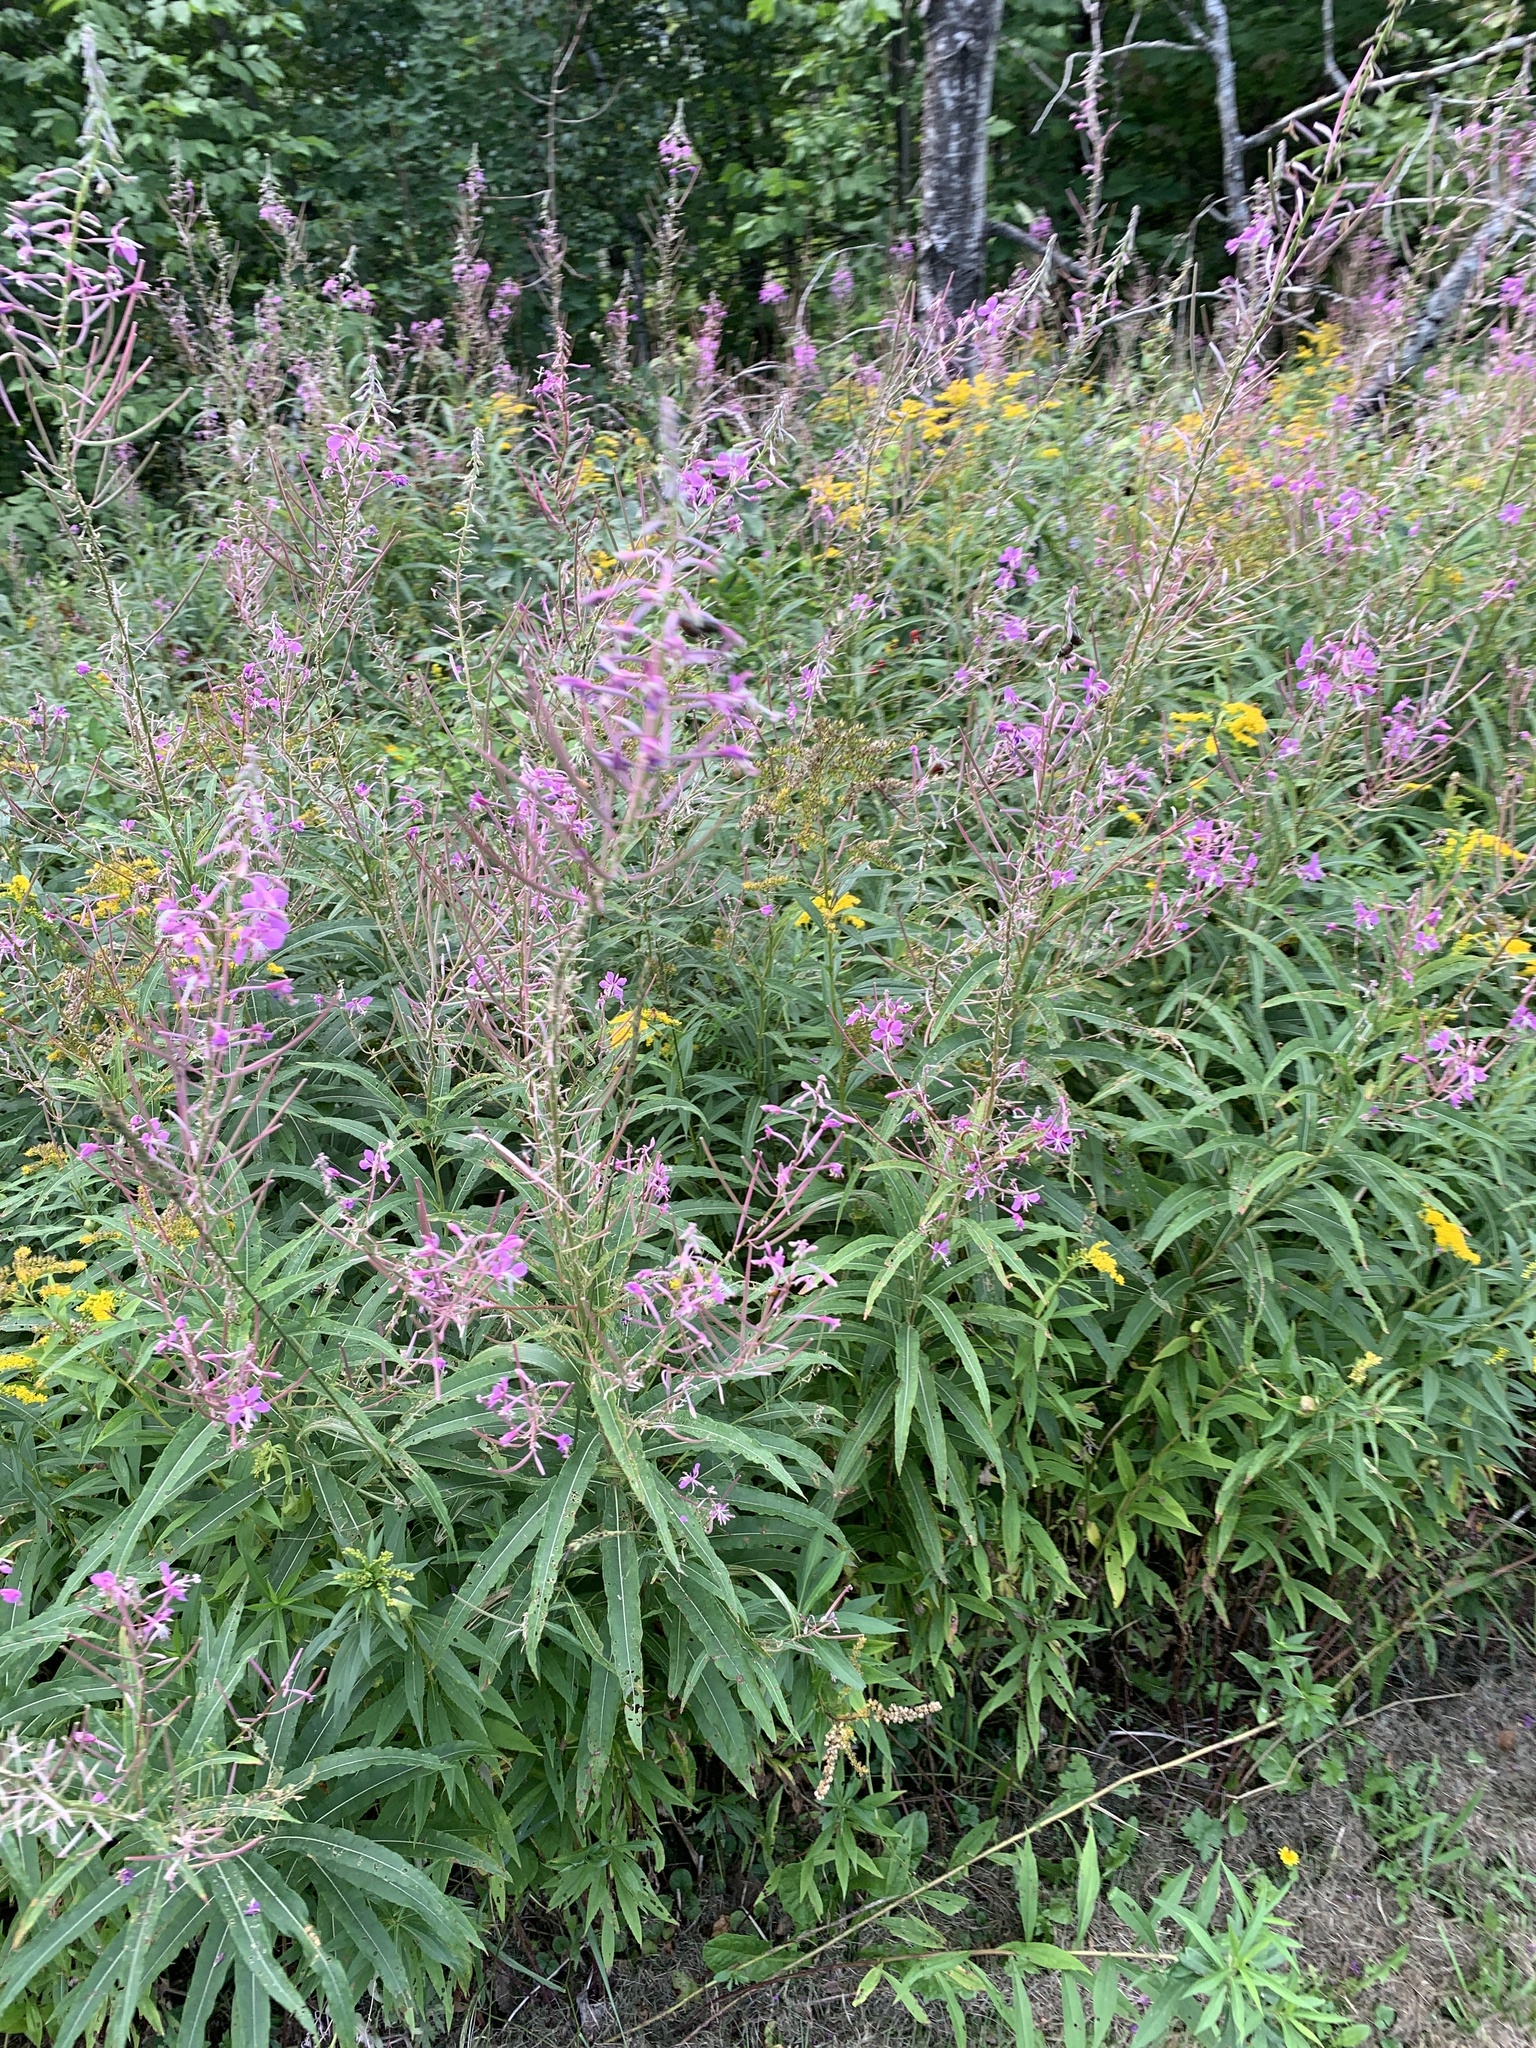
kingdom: Plantae
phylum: Tracheophyta
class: Magnoliopsida
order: Myrtales
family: Onagraceae
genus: Chamaenerion
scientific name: Chamaenerion angustifolium
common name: Fireweed
